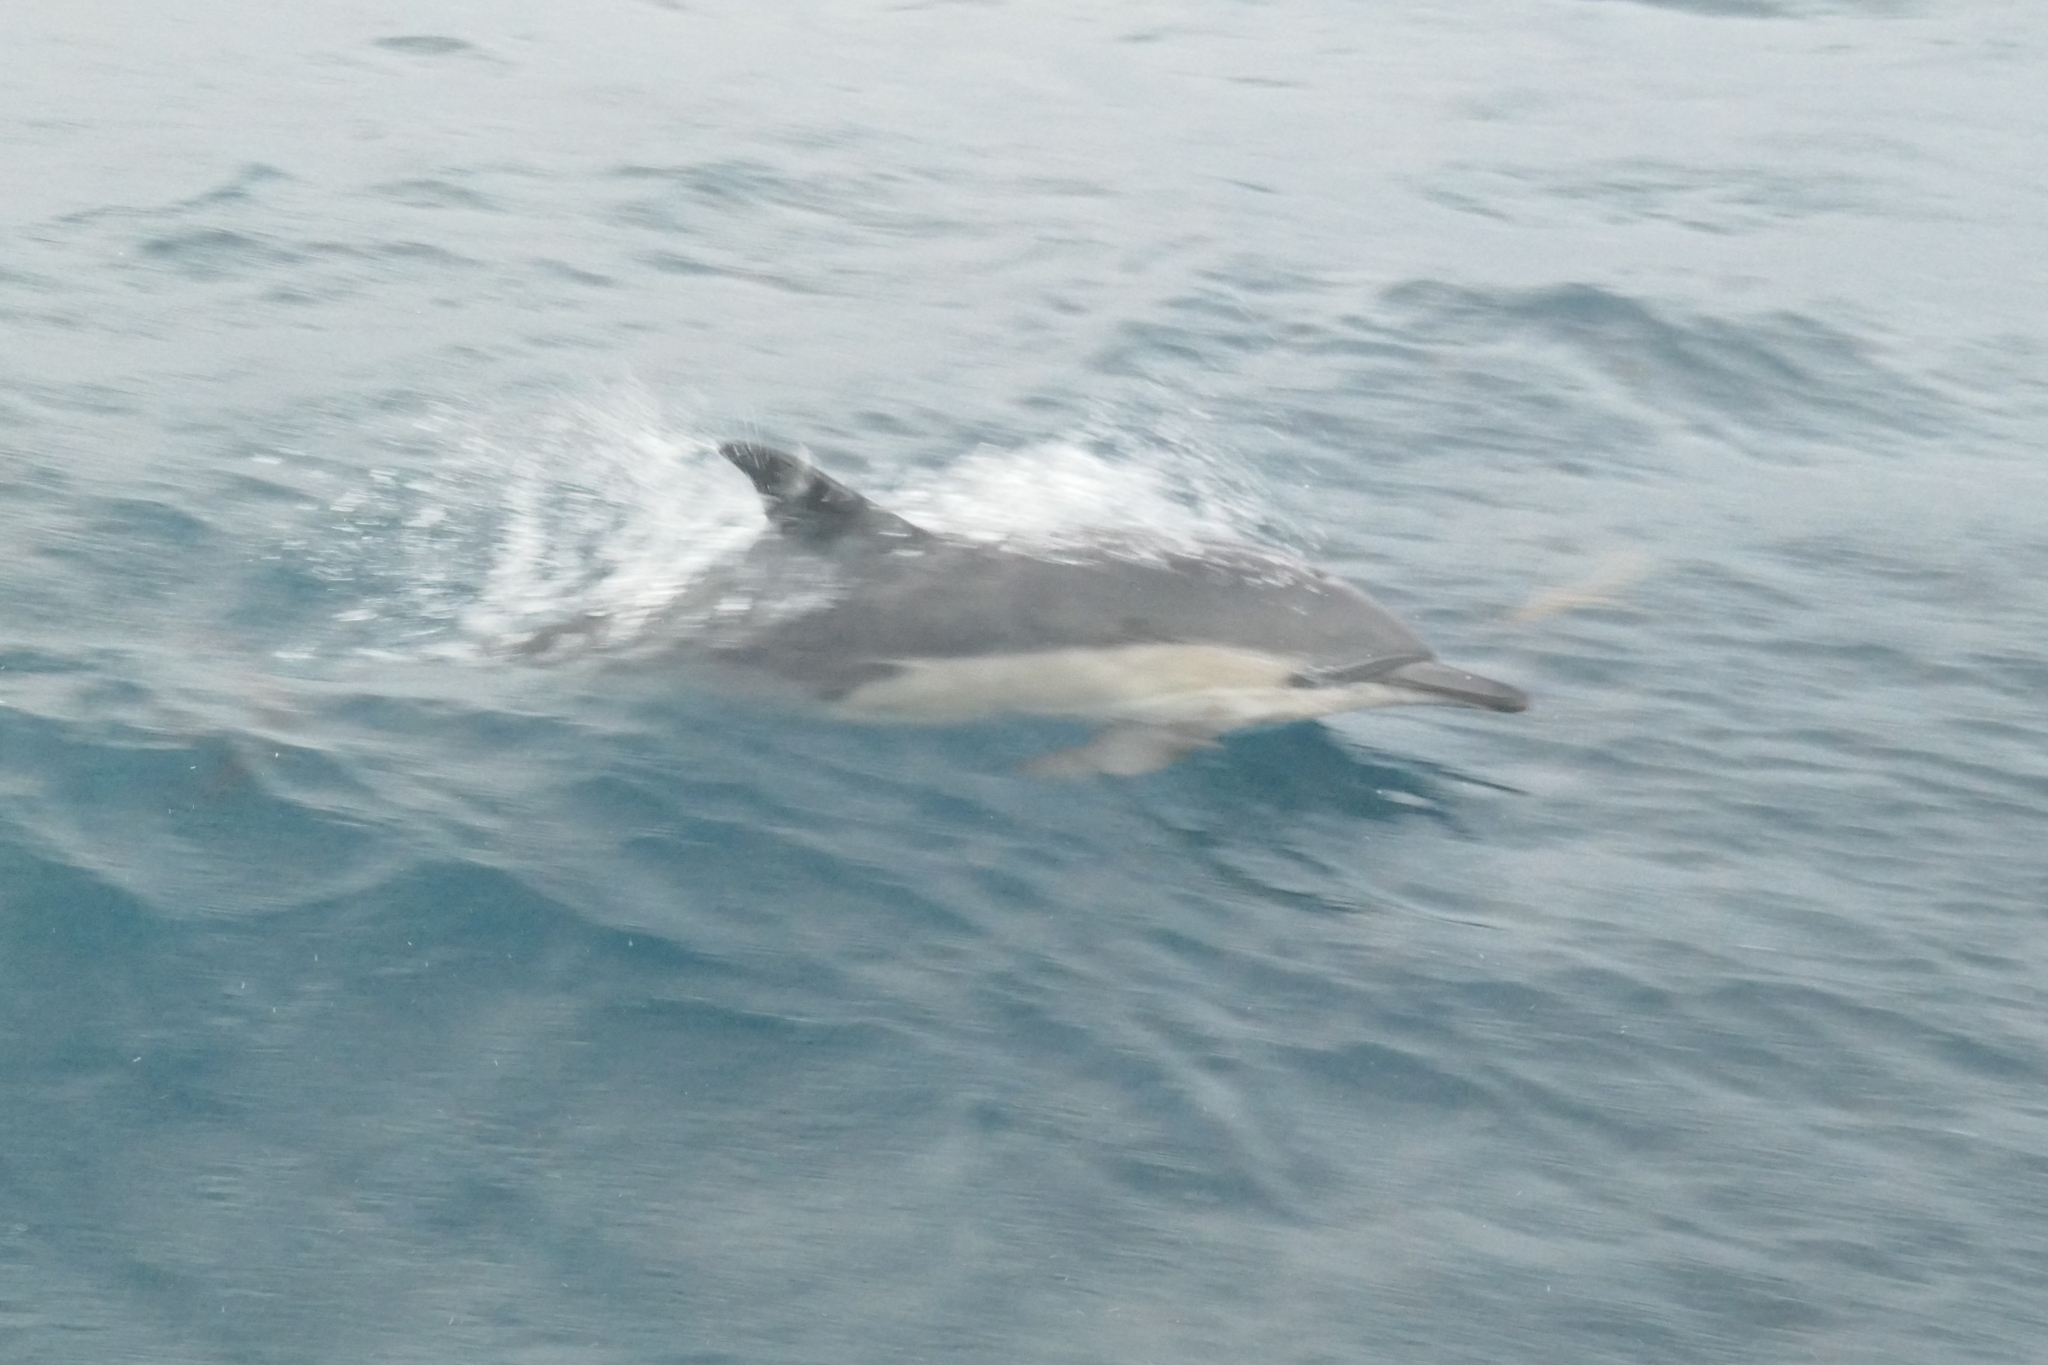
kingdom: Animalia
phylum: Chordata
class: Mammalia
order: Cetacea
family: Delphinidae
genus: Delphinus
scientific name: Delphinus delphis
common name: Common dolphin
